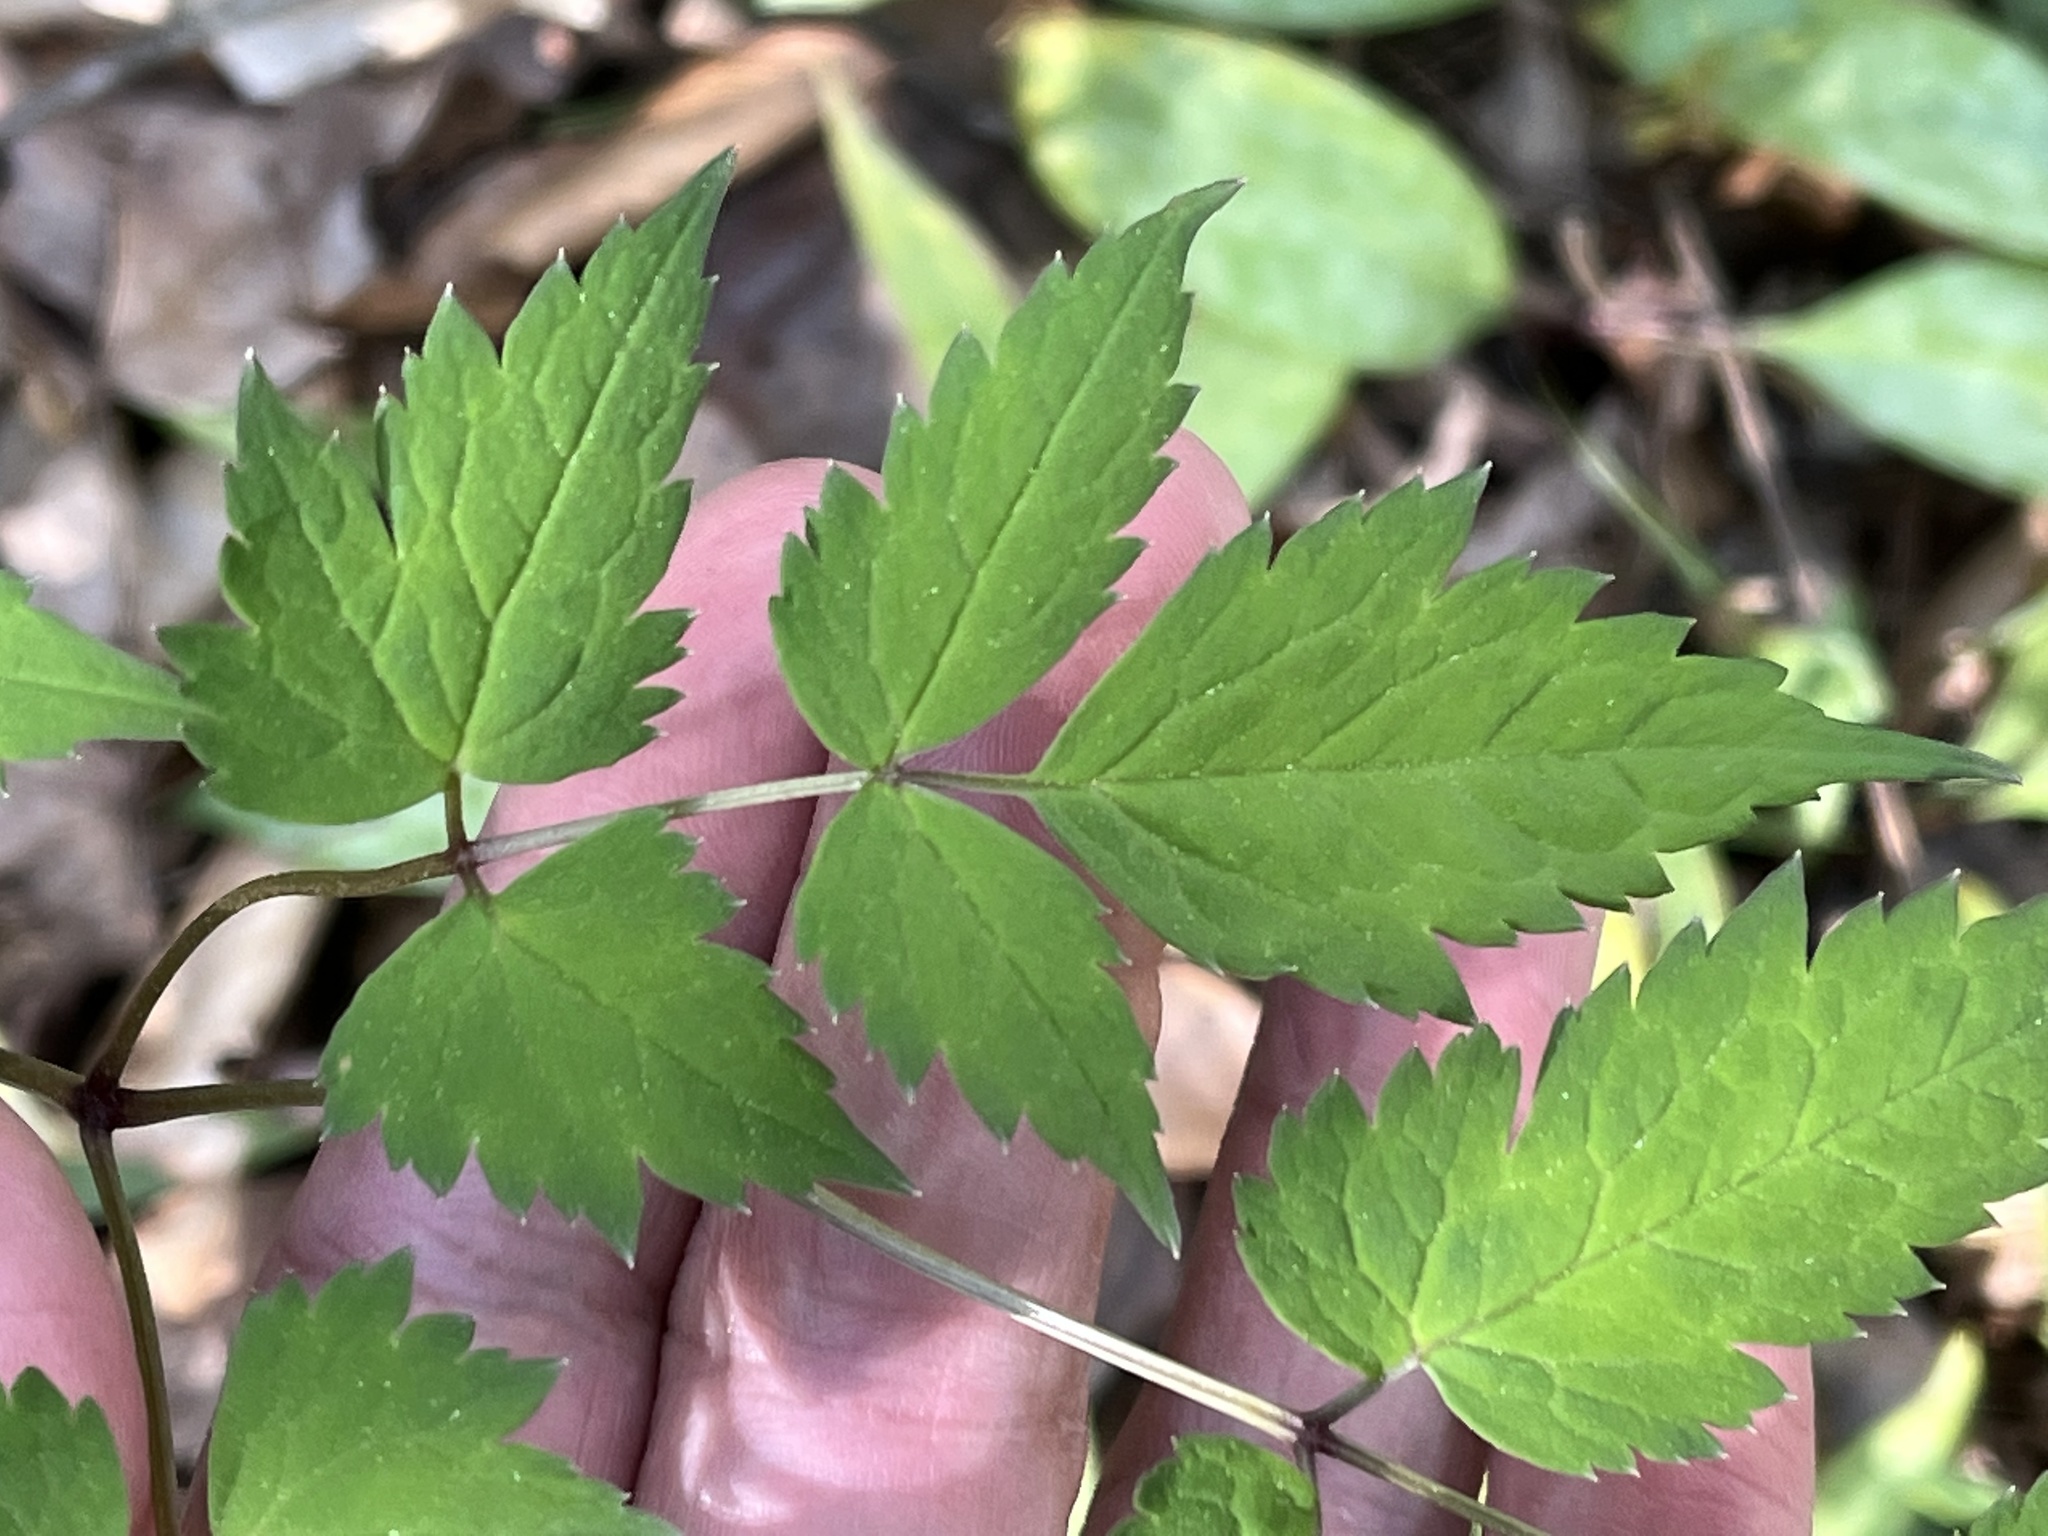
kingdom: Plantae
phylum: Tracheophyta
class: Magnoliopsida
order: Ranunculales
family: Ranunculaceae
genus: Actaea
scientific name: Actaea pachypoda
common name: Doll's-eyes
